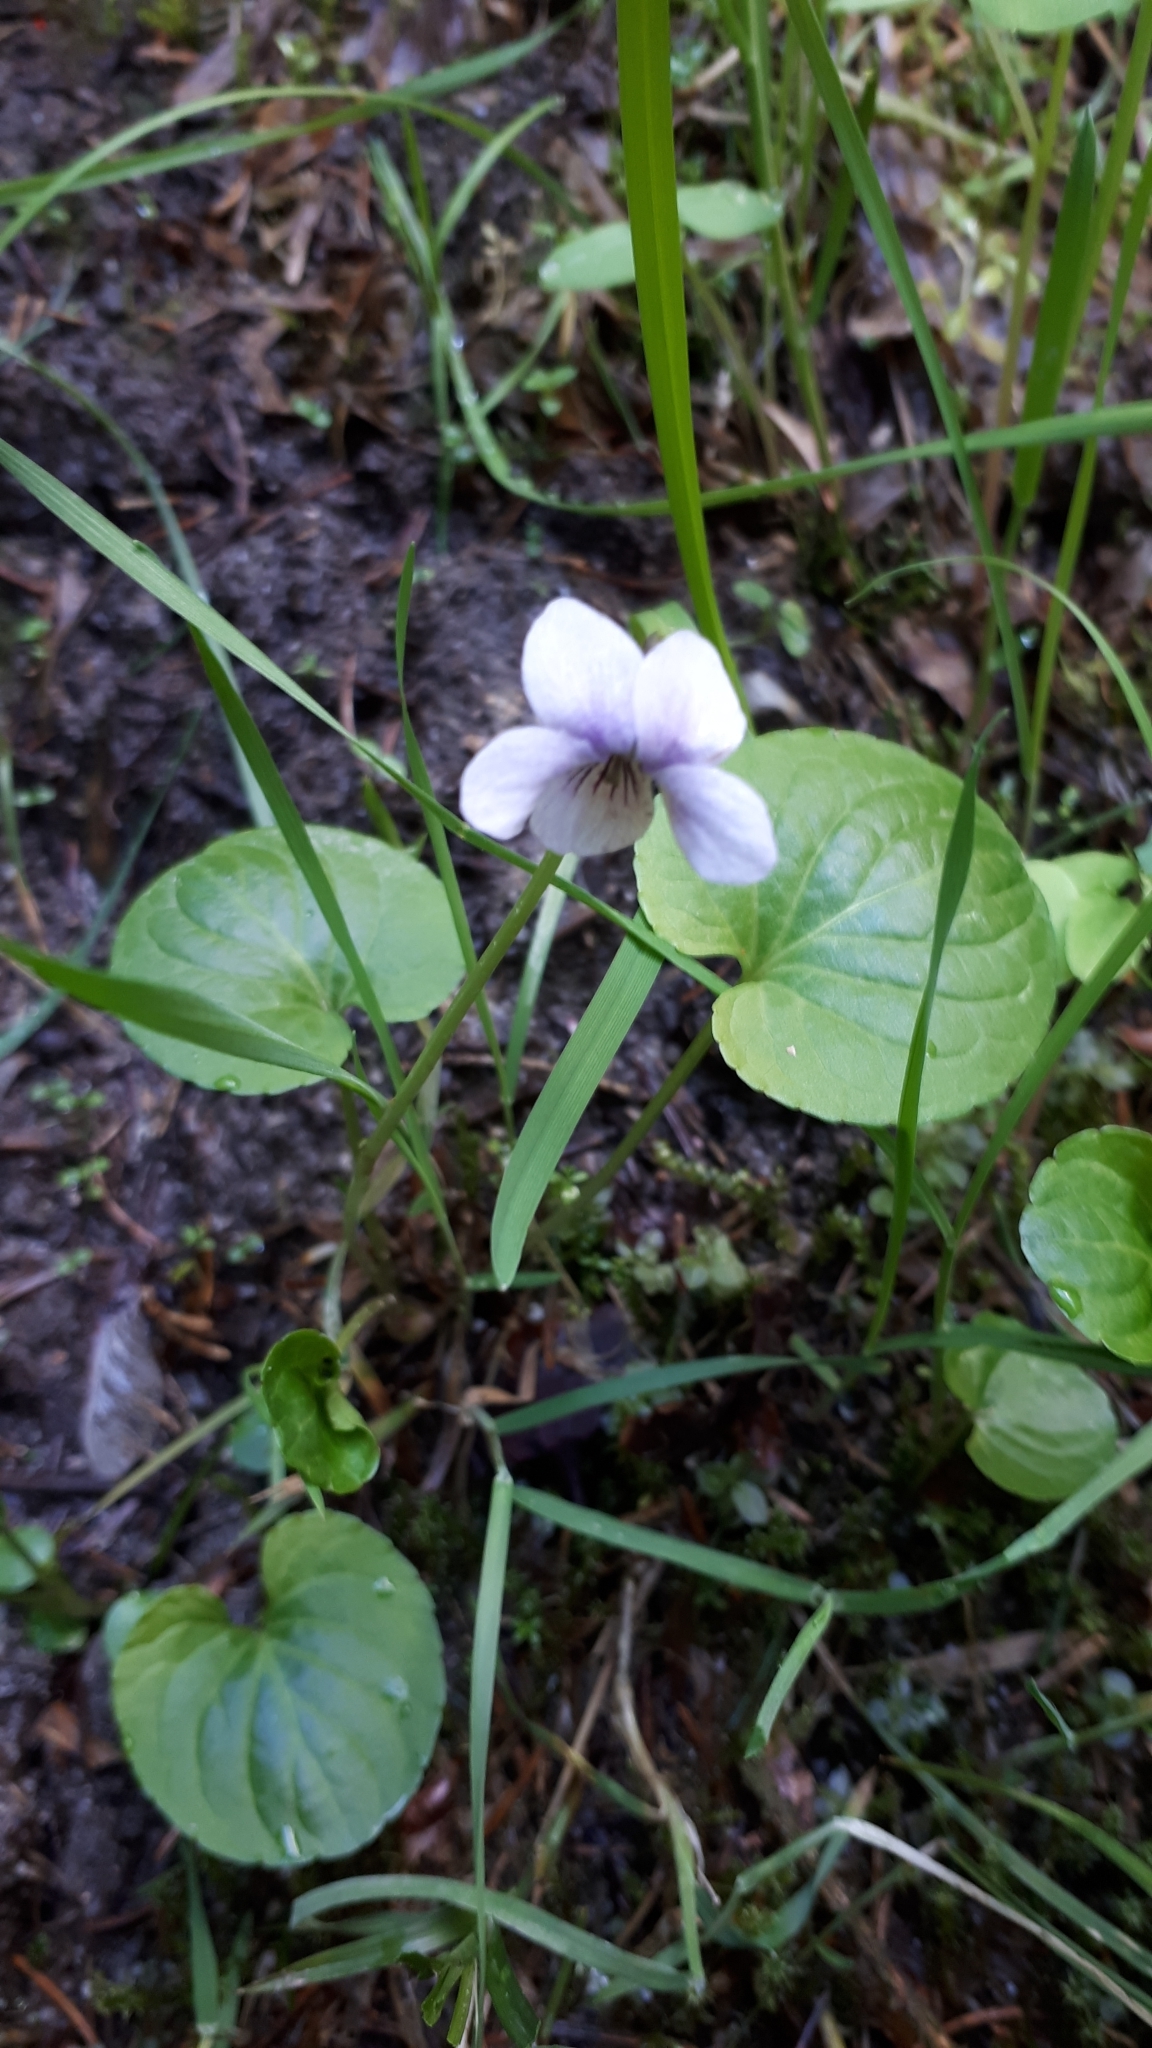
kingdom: Plantae
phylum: Tracheophyta
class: Magnoliopsida
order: Malpighiales
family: Violaceae
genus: Viola
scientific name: Viola palustris
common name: Marsh violet
